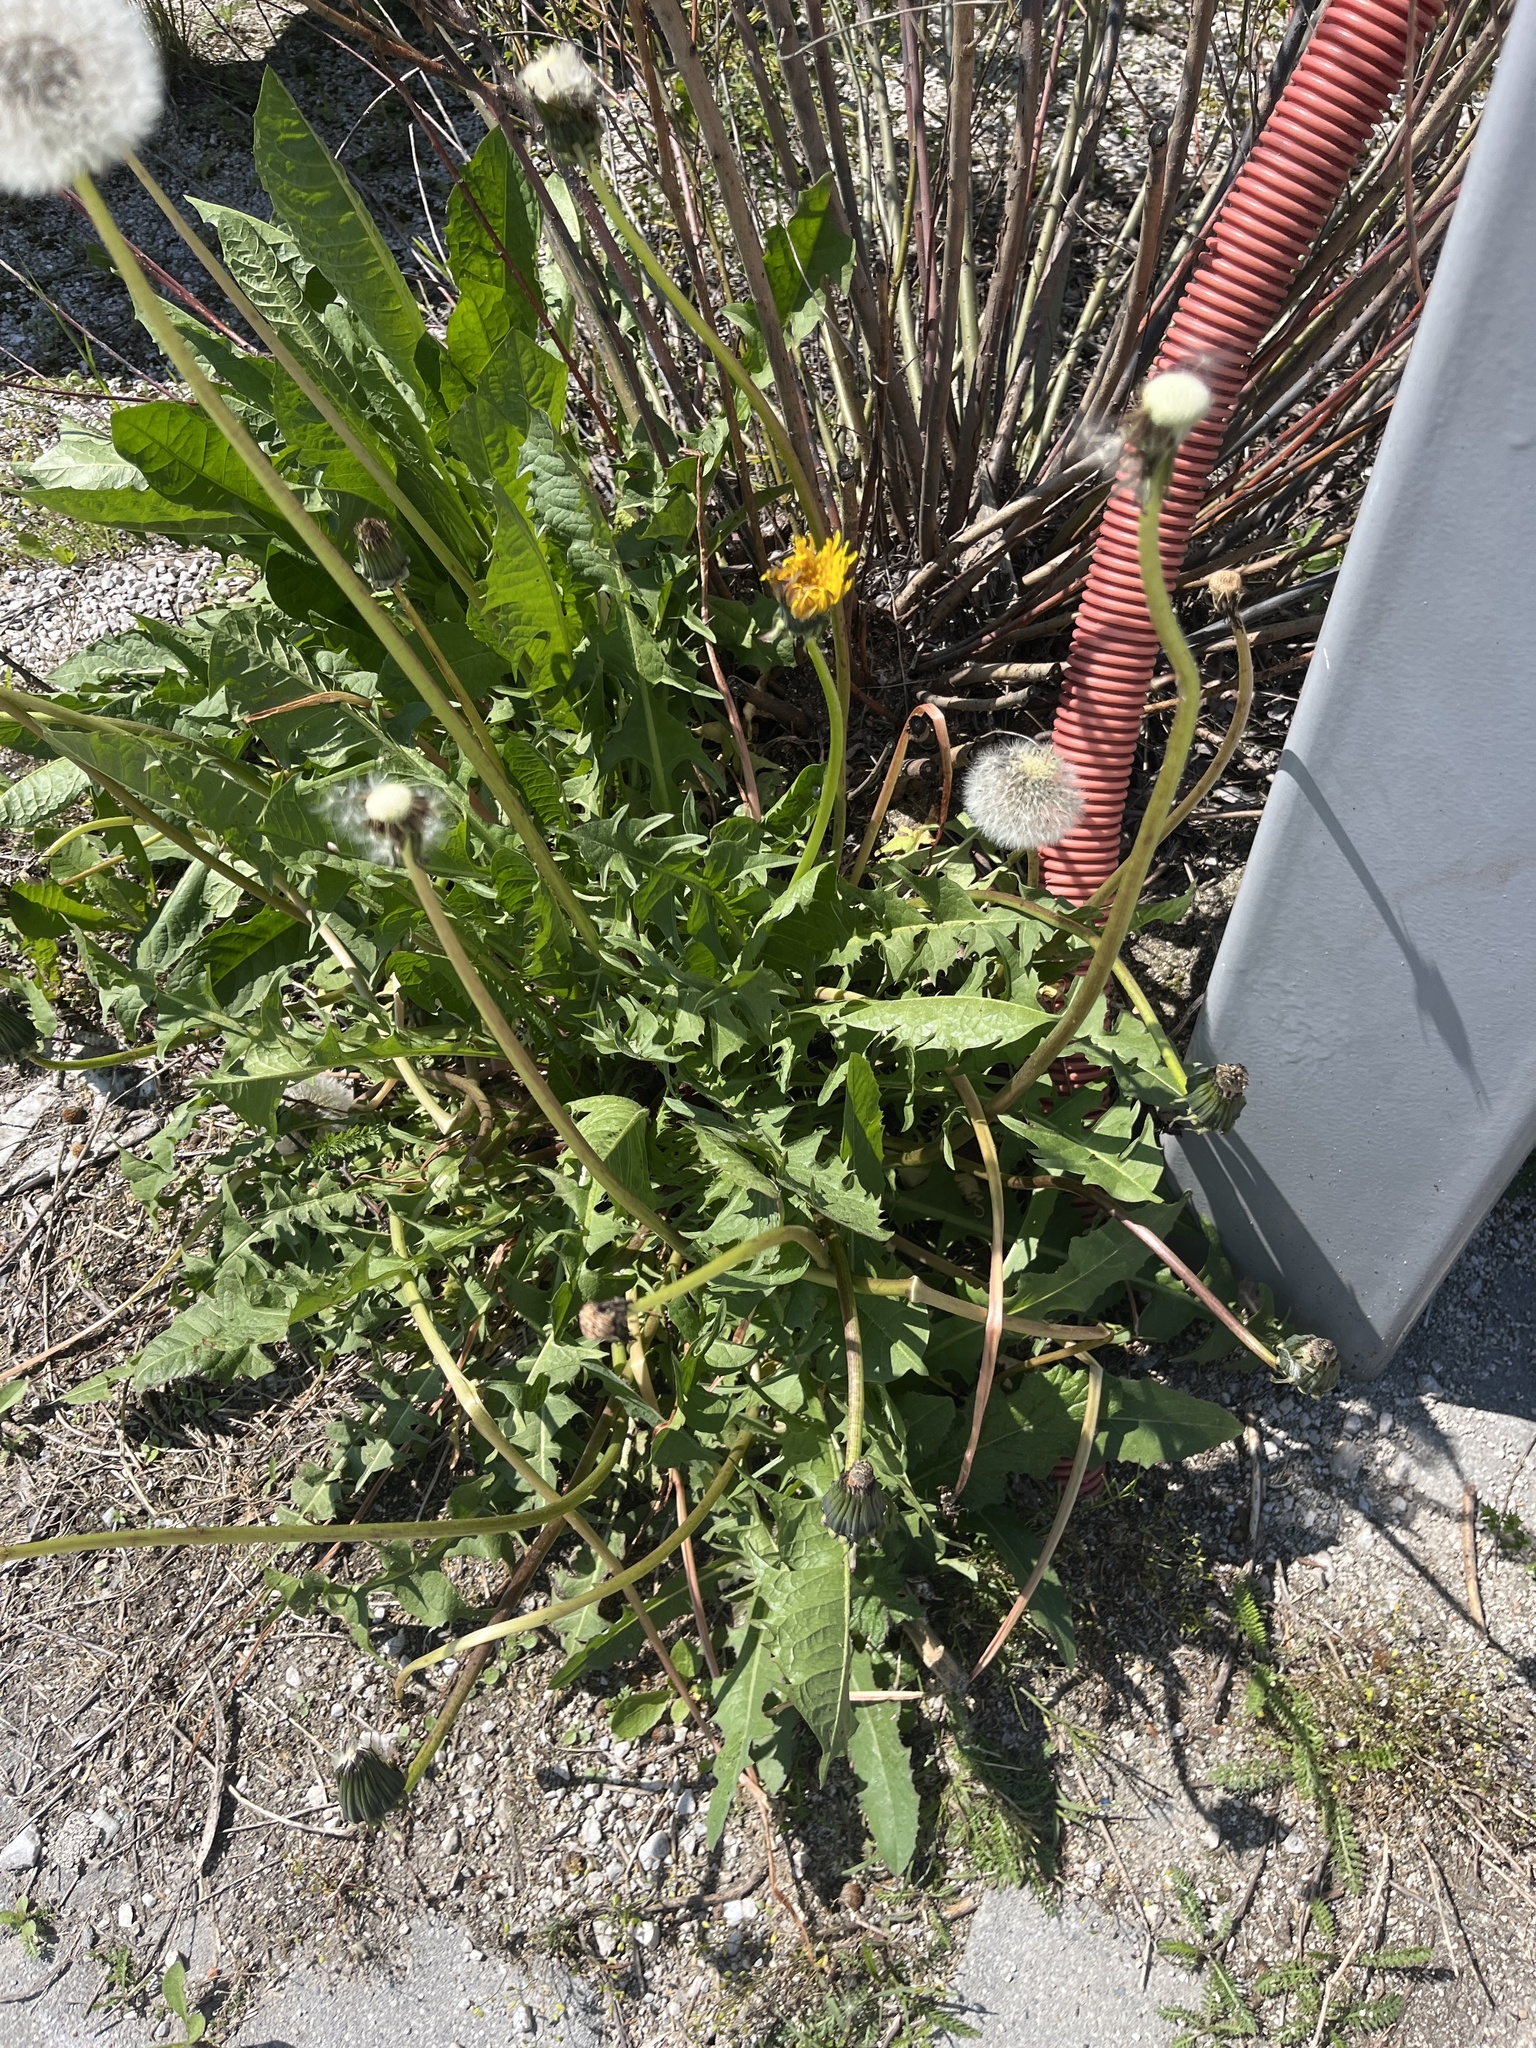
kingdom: Plantae
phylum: Tracheophyta
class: Magnoliopsida
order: Asterales
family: Asteraceae
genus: Taraxacum
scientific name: Taraxacum officinale
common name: Common dandelion
